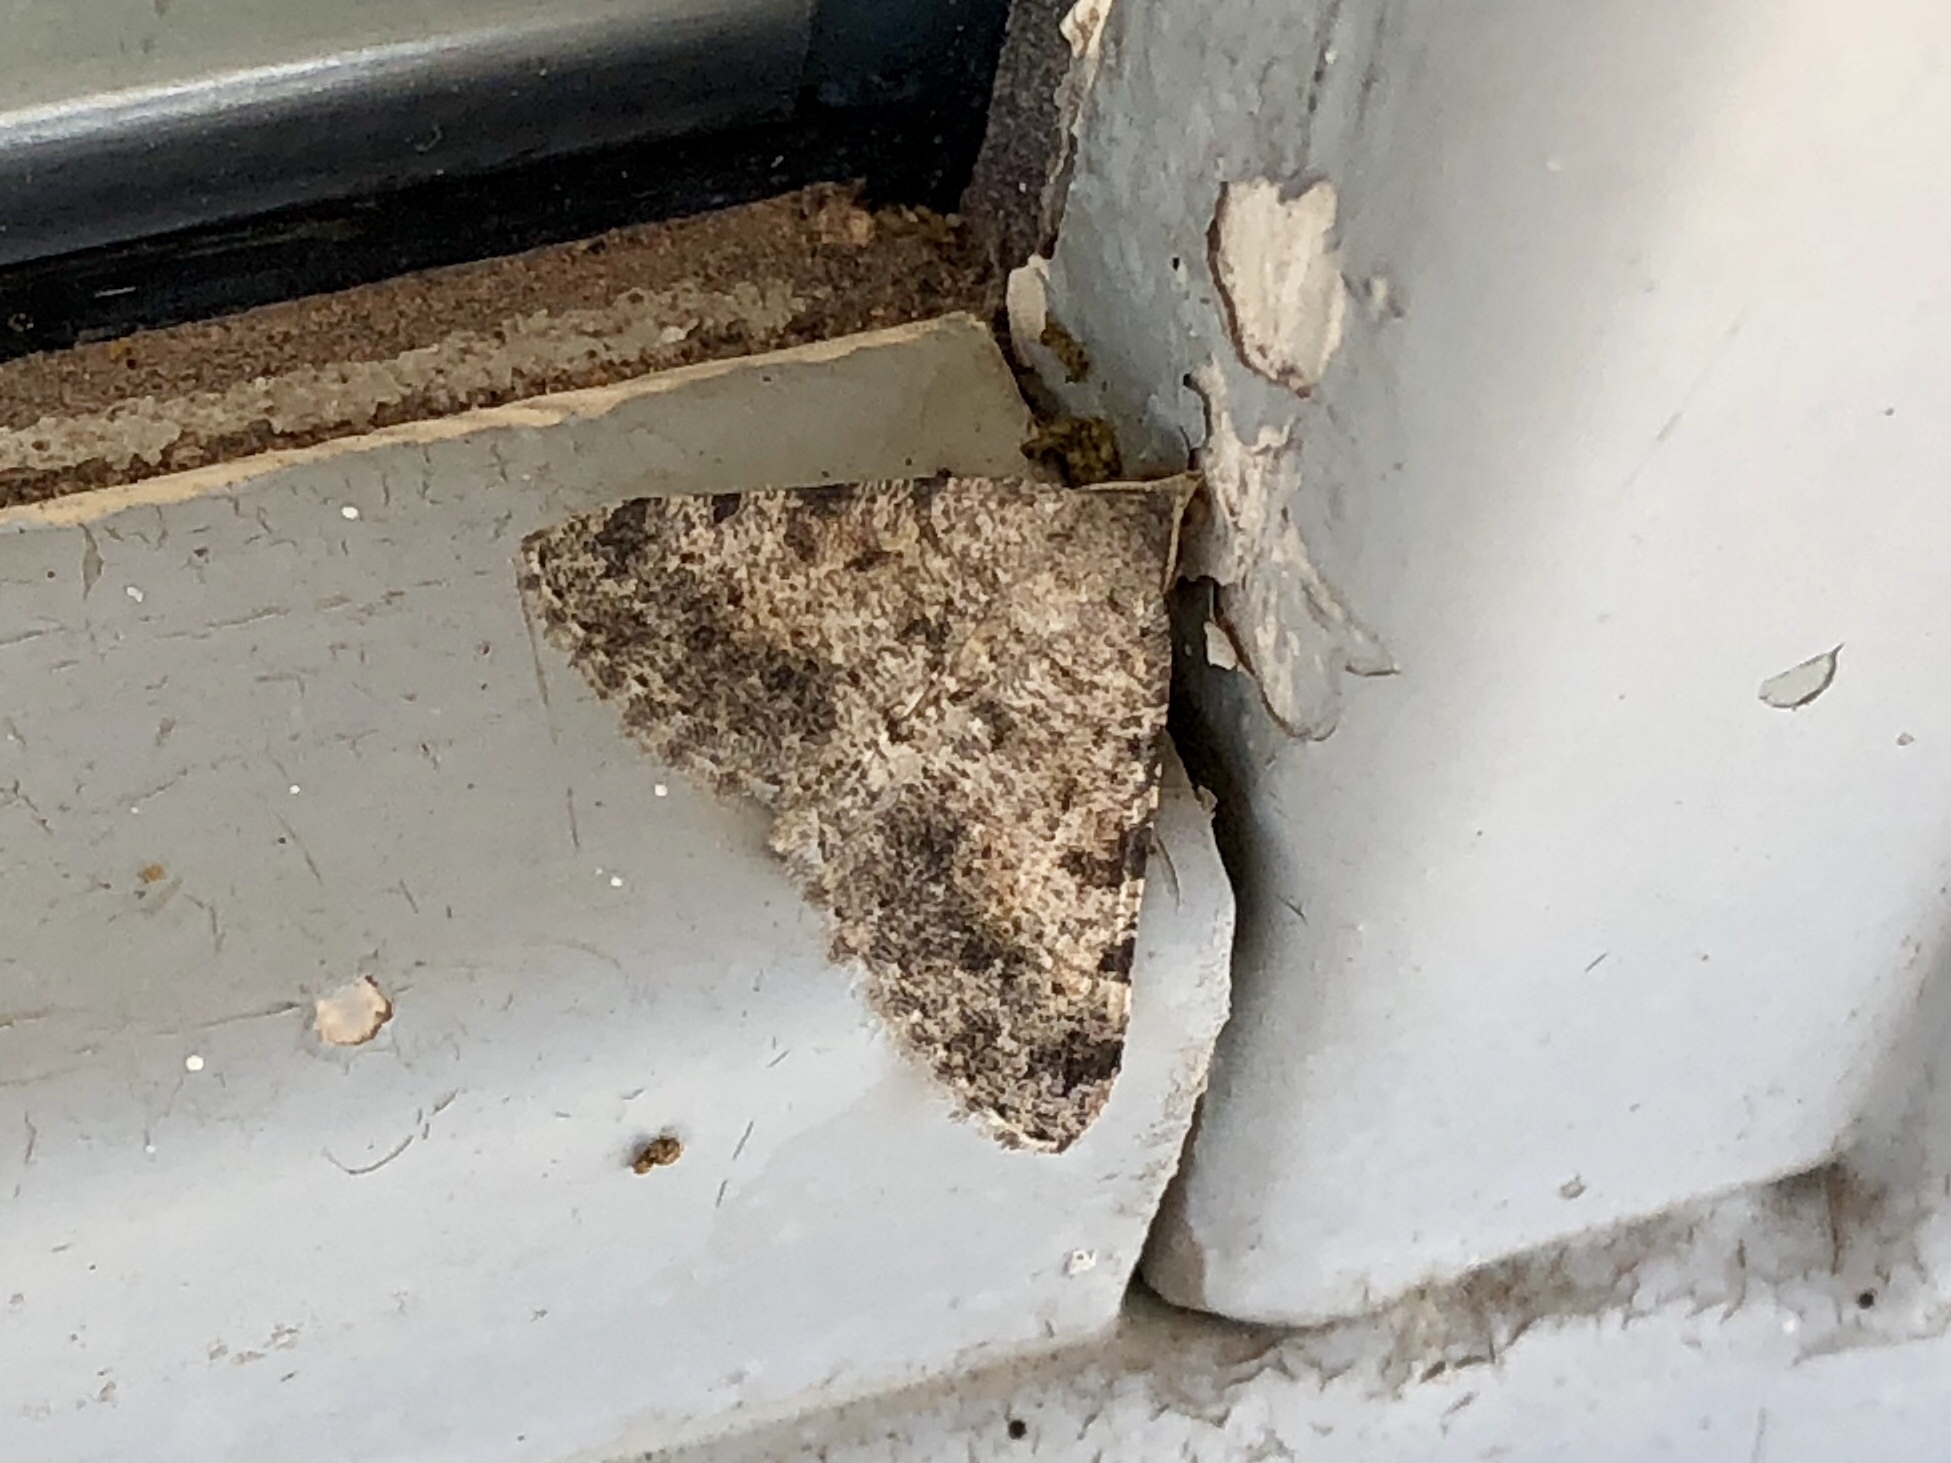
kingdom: Animalia
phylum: Arthropoda
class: Insecta
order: Lepidoptera
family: Geometridae
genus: Digrammia
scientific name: Digrammia colorata
